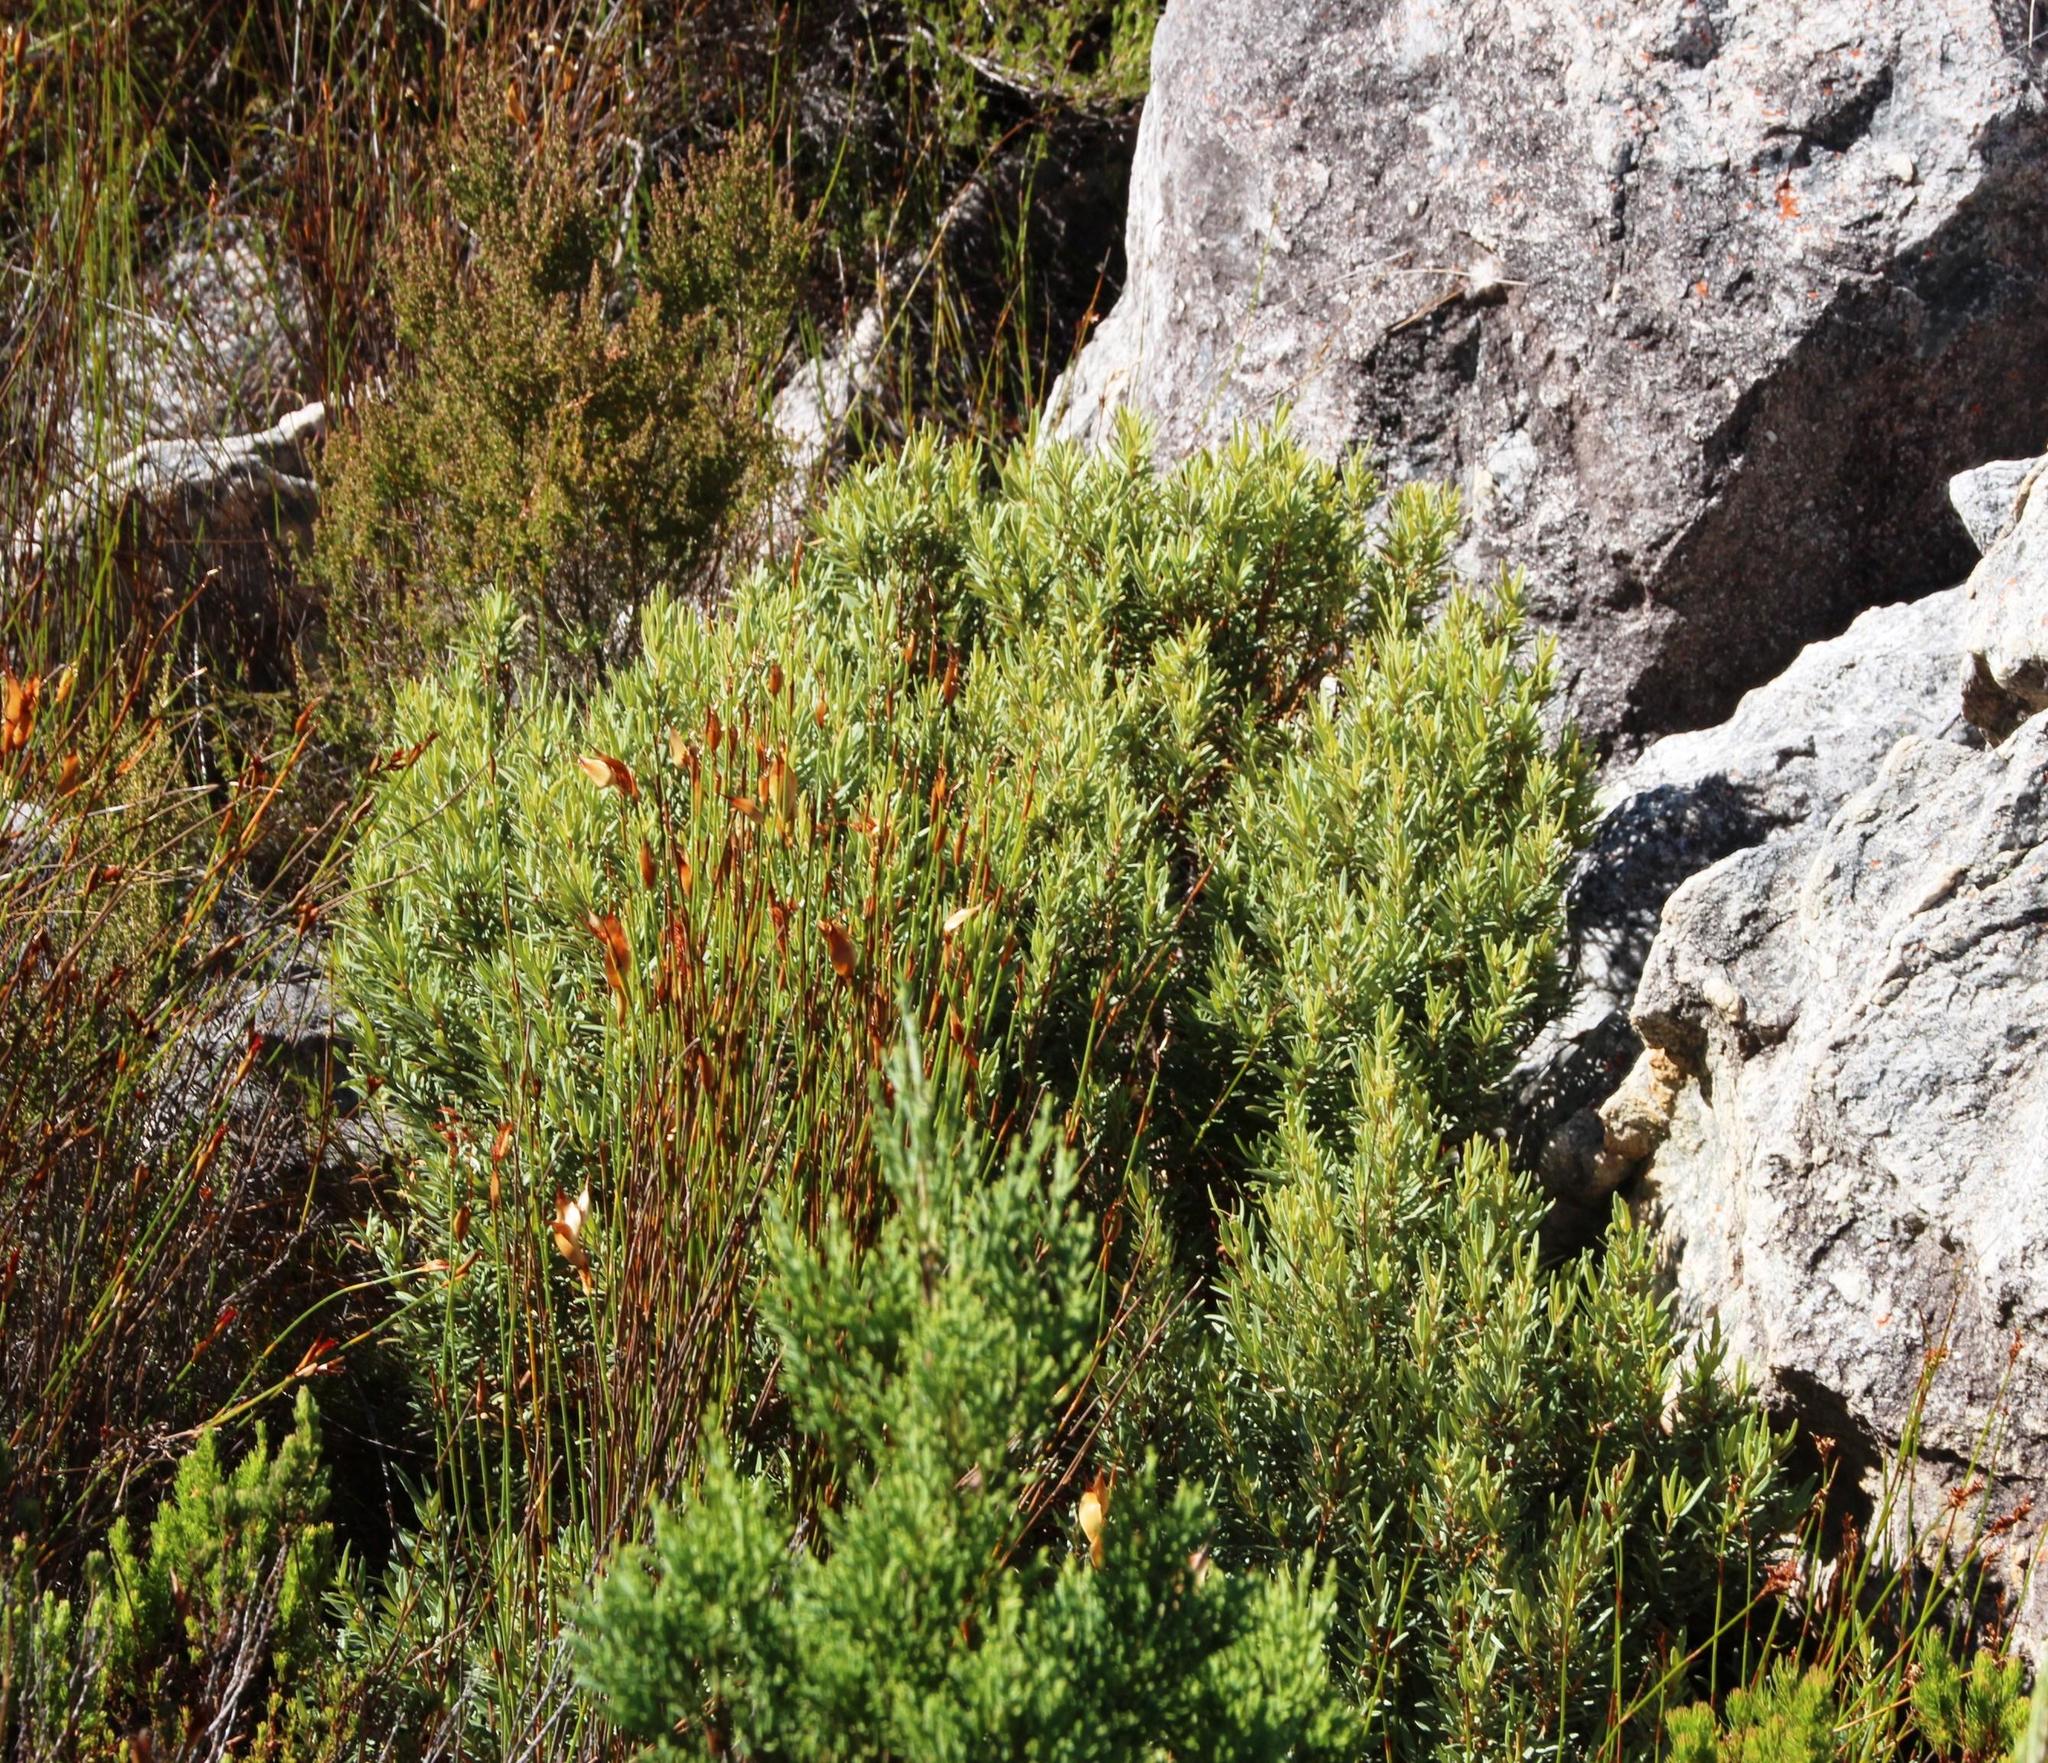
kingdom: Plantae
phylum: Tracheophyta
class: Magnoliopsida
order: Cornales
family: Grubbiaceae
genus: Grubbia
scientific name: Grubbia tomentosa
